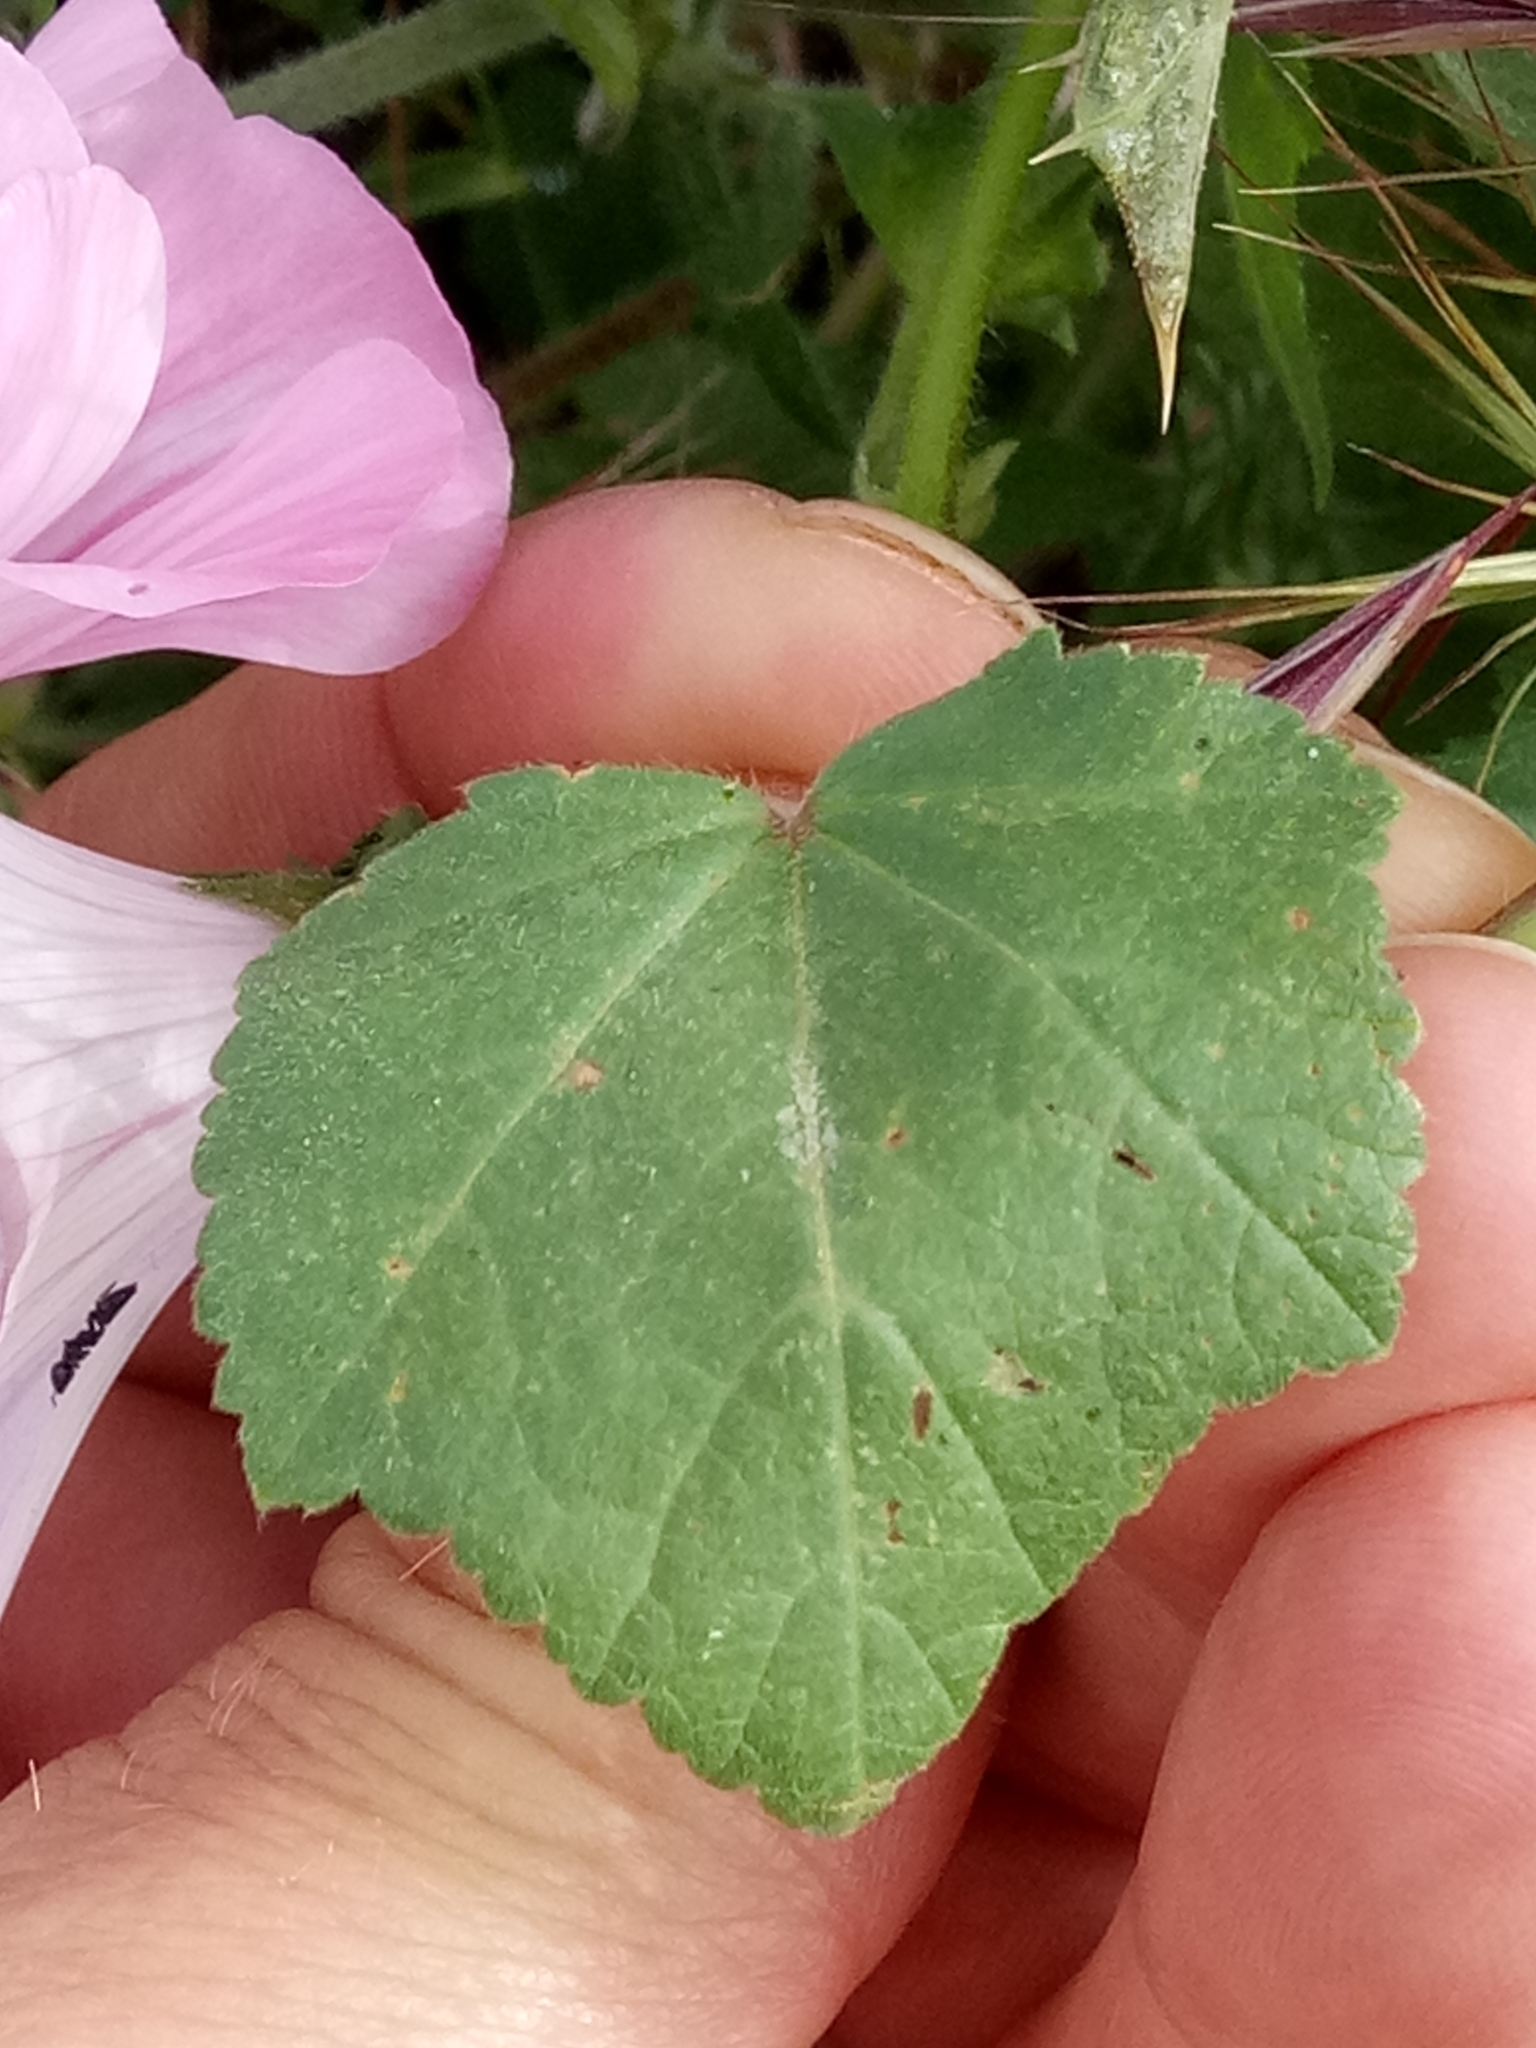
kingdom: Plantae
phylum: Tracheophyta
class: Magnoliopsida
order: Malvales
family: Malvaceae
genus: Malva
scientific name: Malva trimestris
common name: Royal mallow
